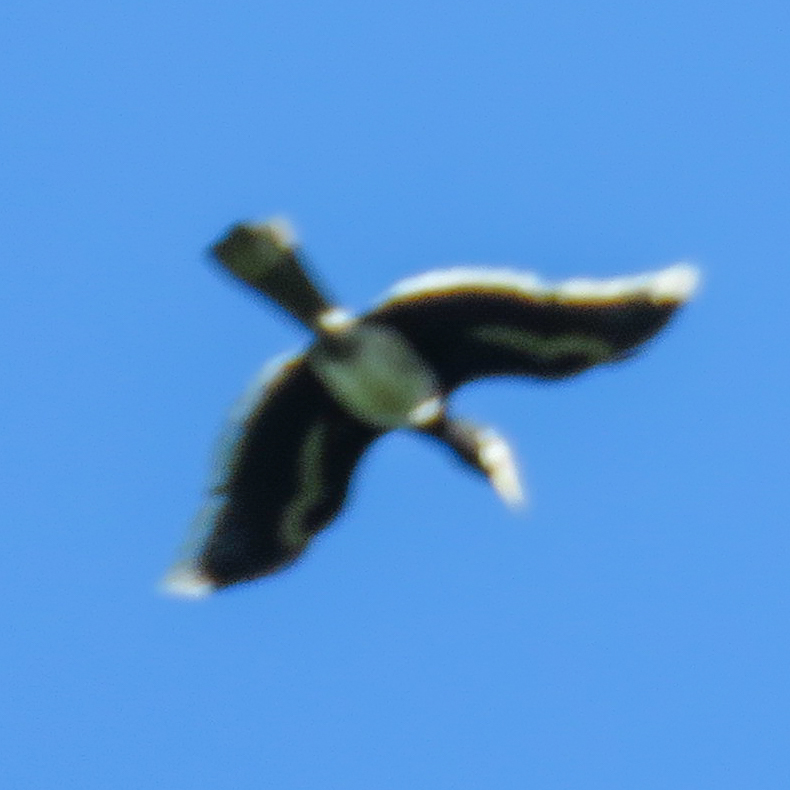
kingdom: Animalia
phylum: Chordata
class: Aves
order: Bucerotiformes
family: Bucerotidae
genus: Anthracoceros
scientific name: Anthracoceros albirostris
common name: Oriental pied-hornbill
